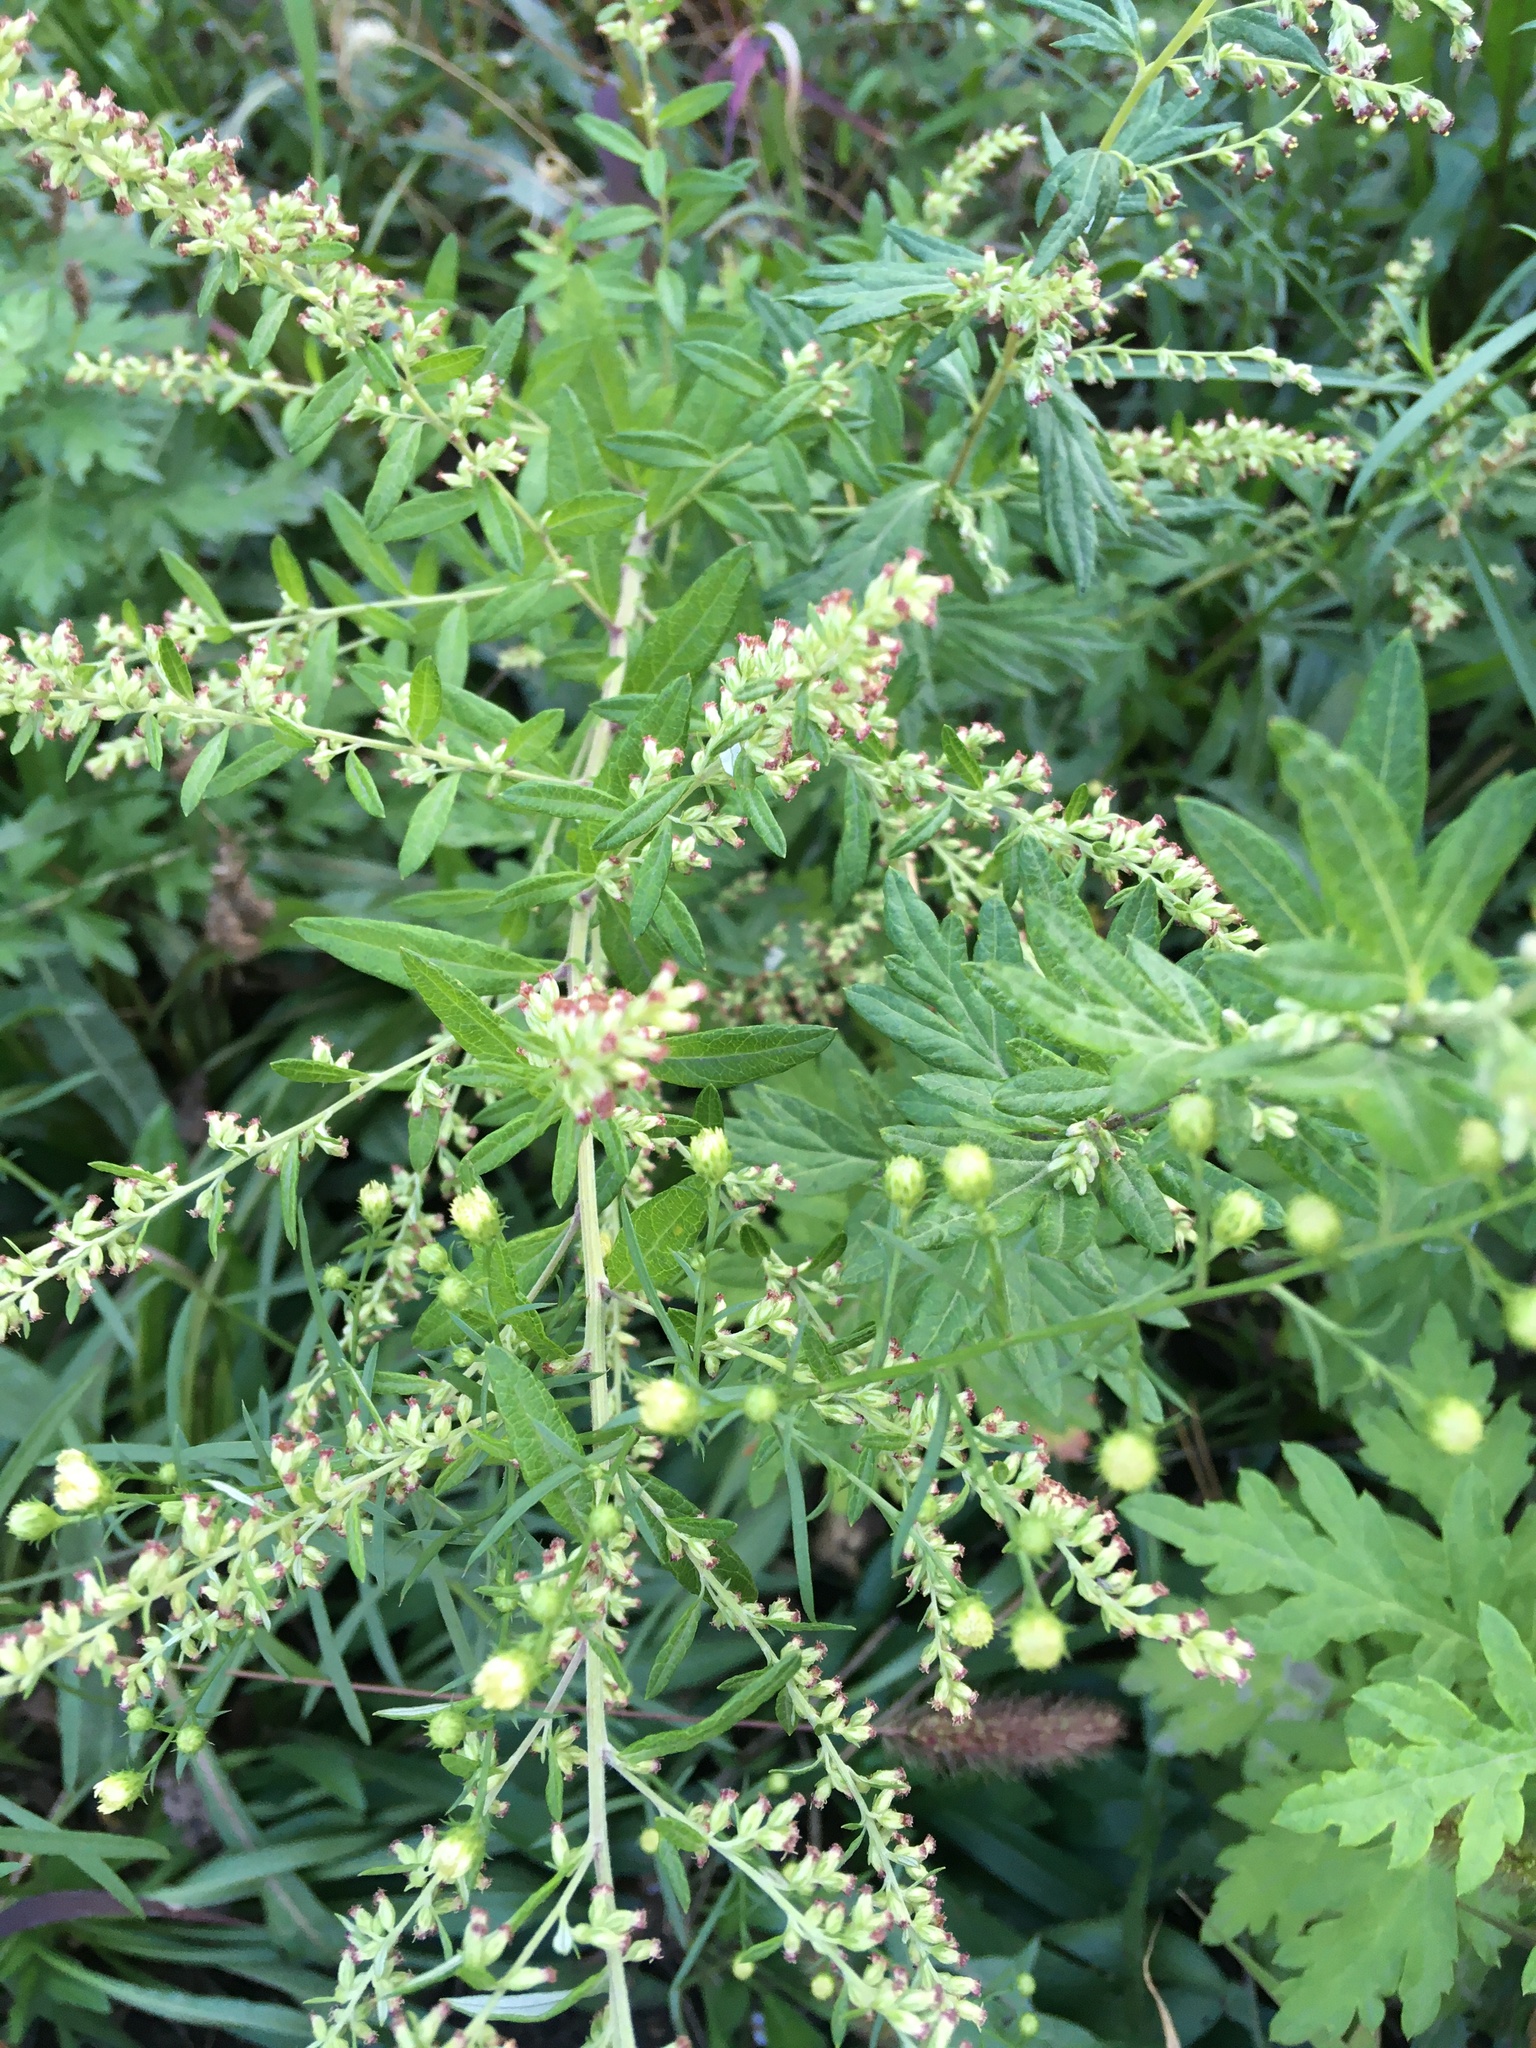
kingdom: Plantae
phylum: Tracheophyta
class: Magnoliopsida
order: Asterales
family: Asteraceae
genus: Artemisia
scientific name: Artemisia vulgaris
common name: Mugwort
